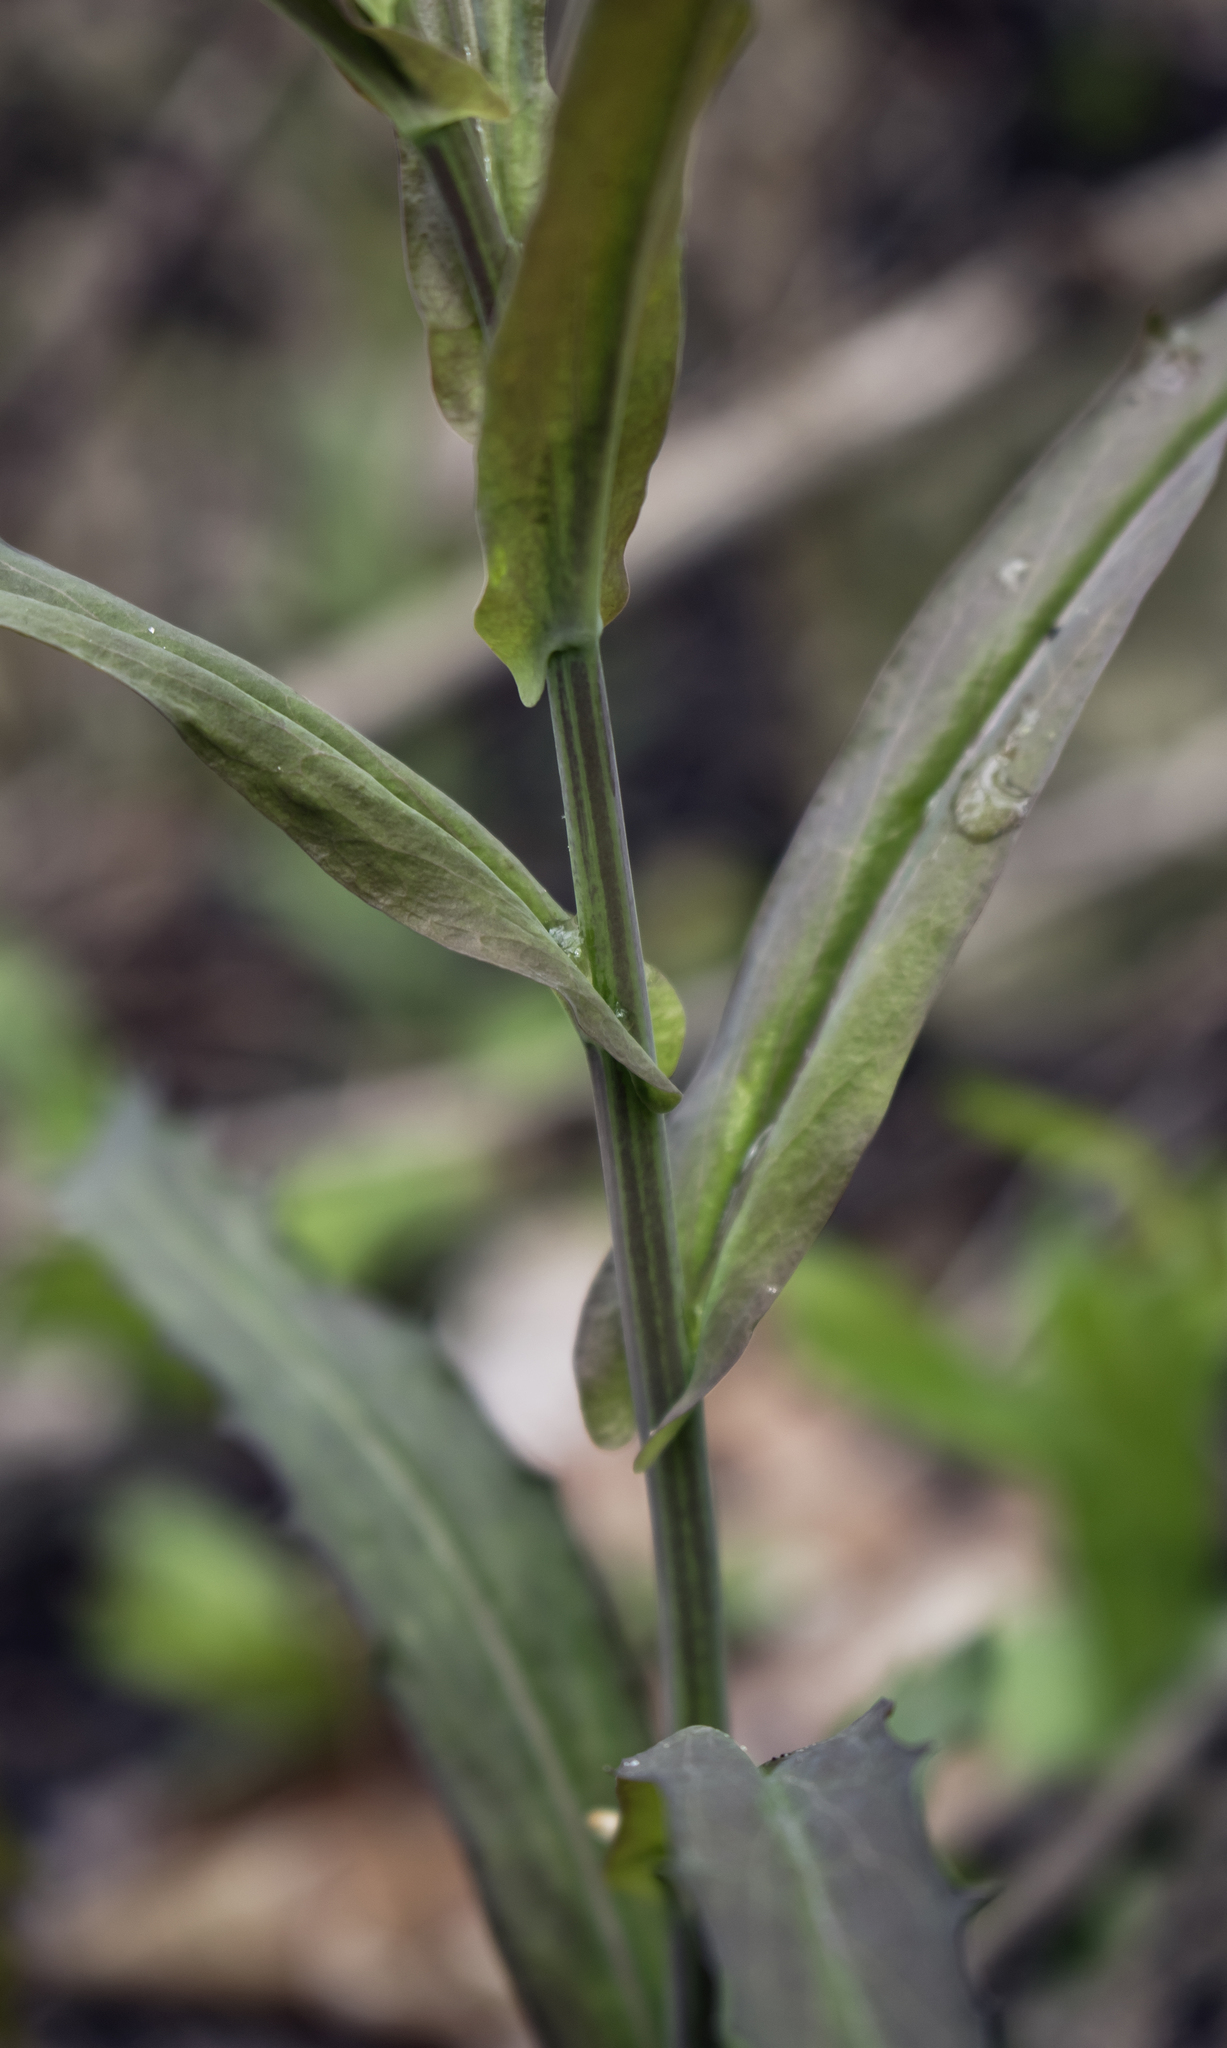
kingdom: Plantae
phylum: Tracheophyta
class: Magnoliopsida
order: Brassicales
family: Brassicaceae
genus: Borodinia
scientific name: Borodinia laevigata
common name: Smooth rockcress
